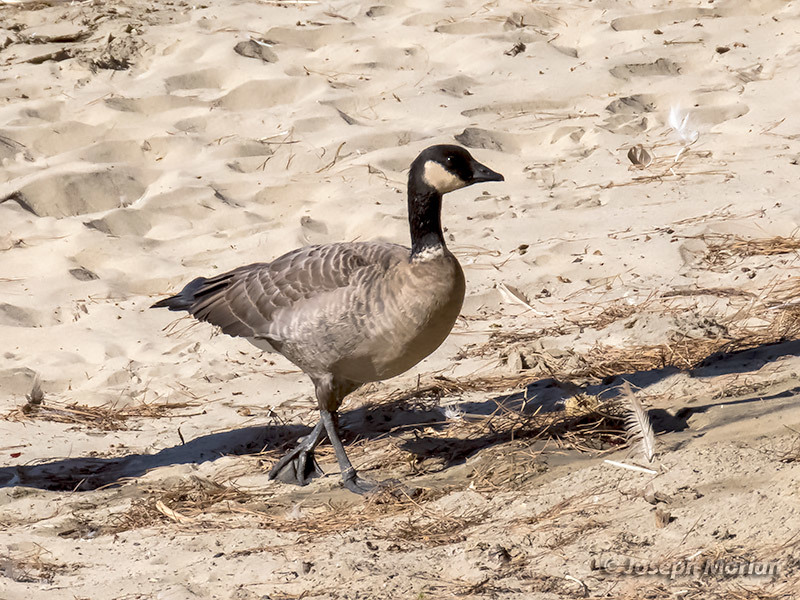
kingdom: Animalia
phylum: Chordata
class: Aves
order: Anseriformes
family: Anatidae
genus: Branta
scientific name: Branta hutchinsii
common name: Cackling goose
